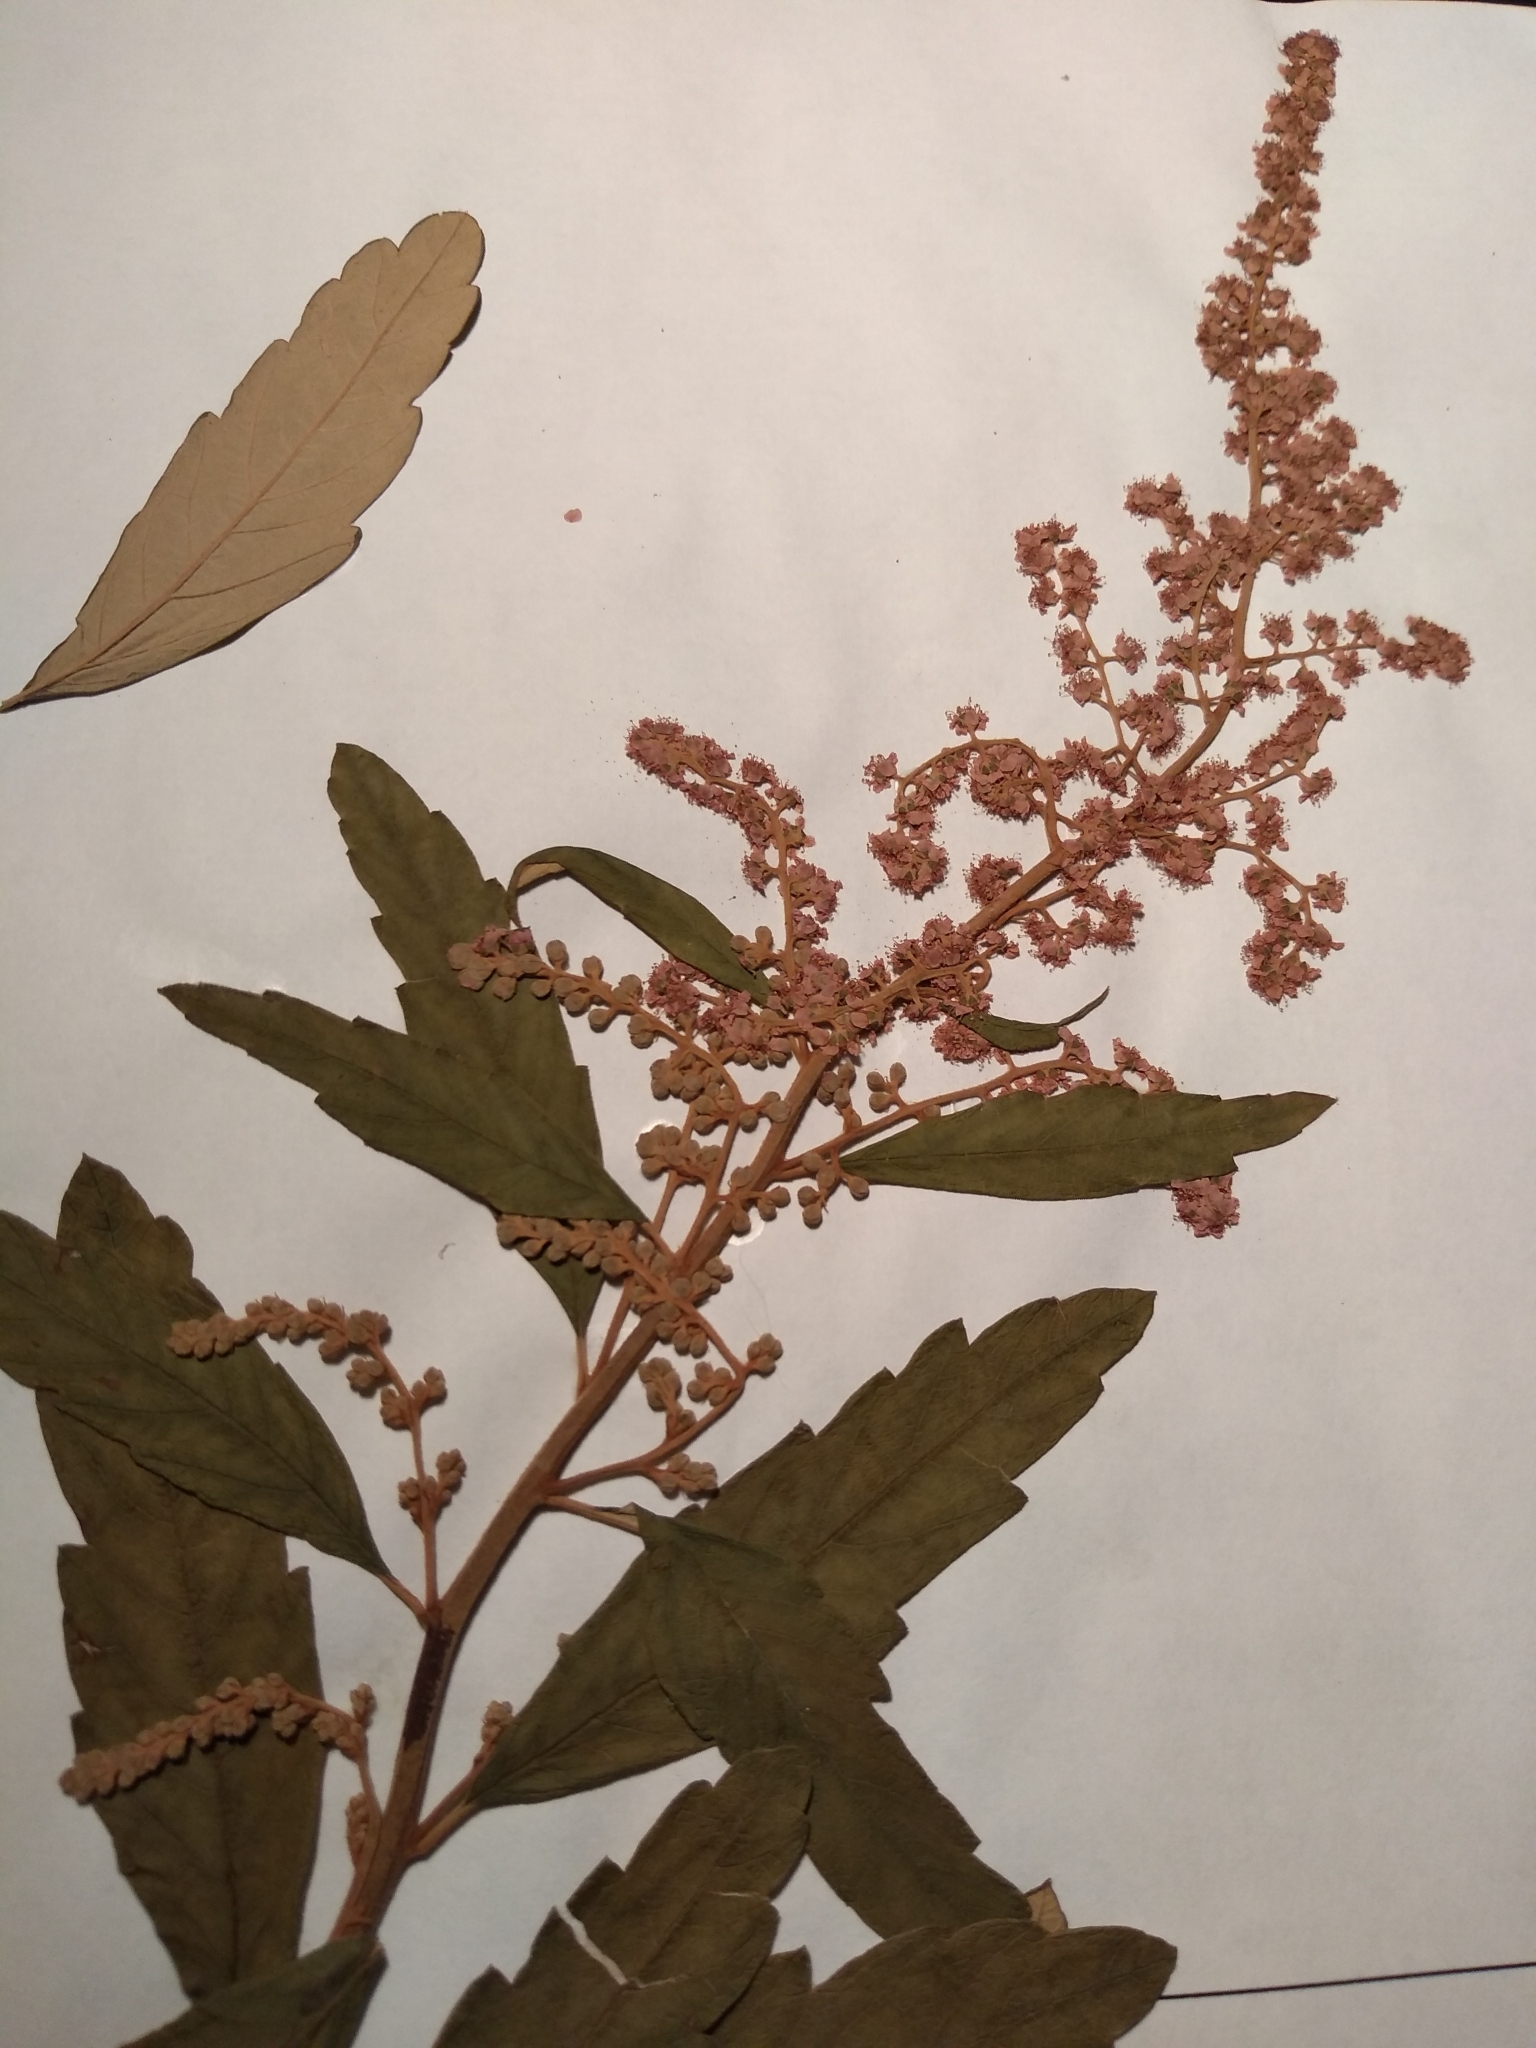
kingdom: Plantae
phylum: Tracheophyta
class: Magnoliopsida
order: Rosales
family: Rosaceae
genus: Spiraea
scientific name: Spiraea tomentosa
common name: Hardhack
